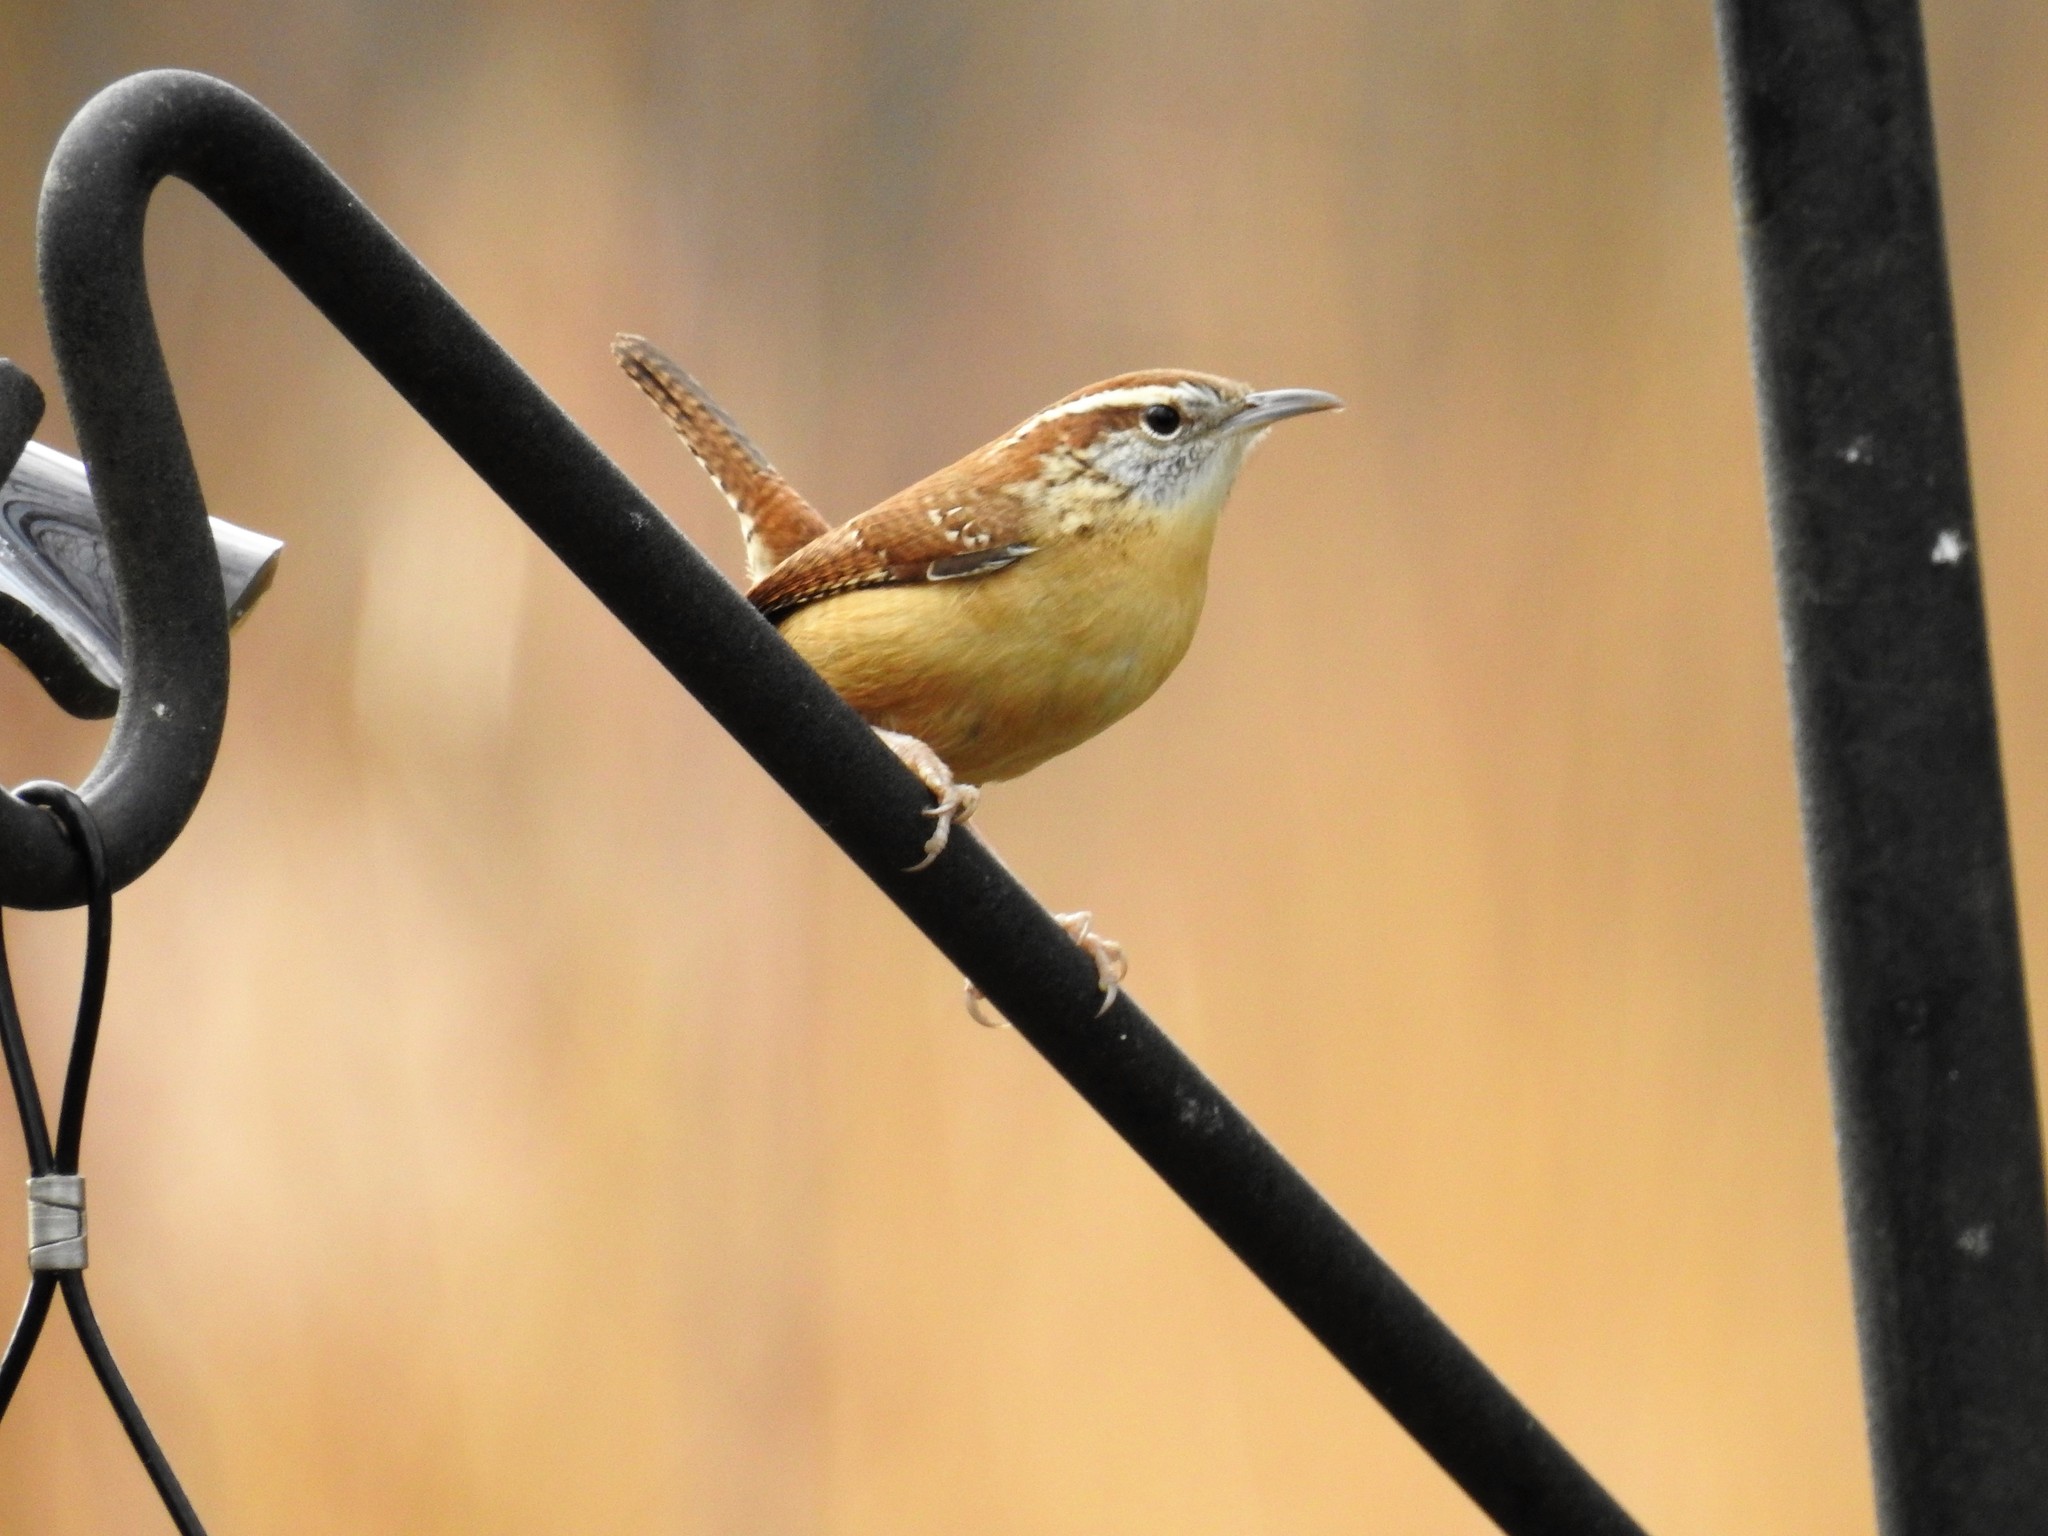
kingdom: Animalia
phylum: Chordata
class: Aves
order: Passeriformes
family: Troglodytidae
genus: Thryothorus
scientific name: Thryothorus ludovicianus
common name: Carolina wren
